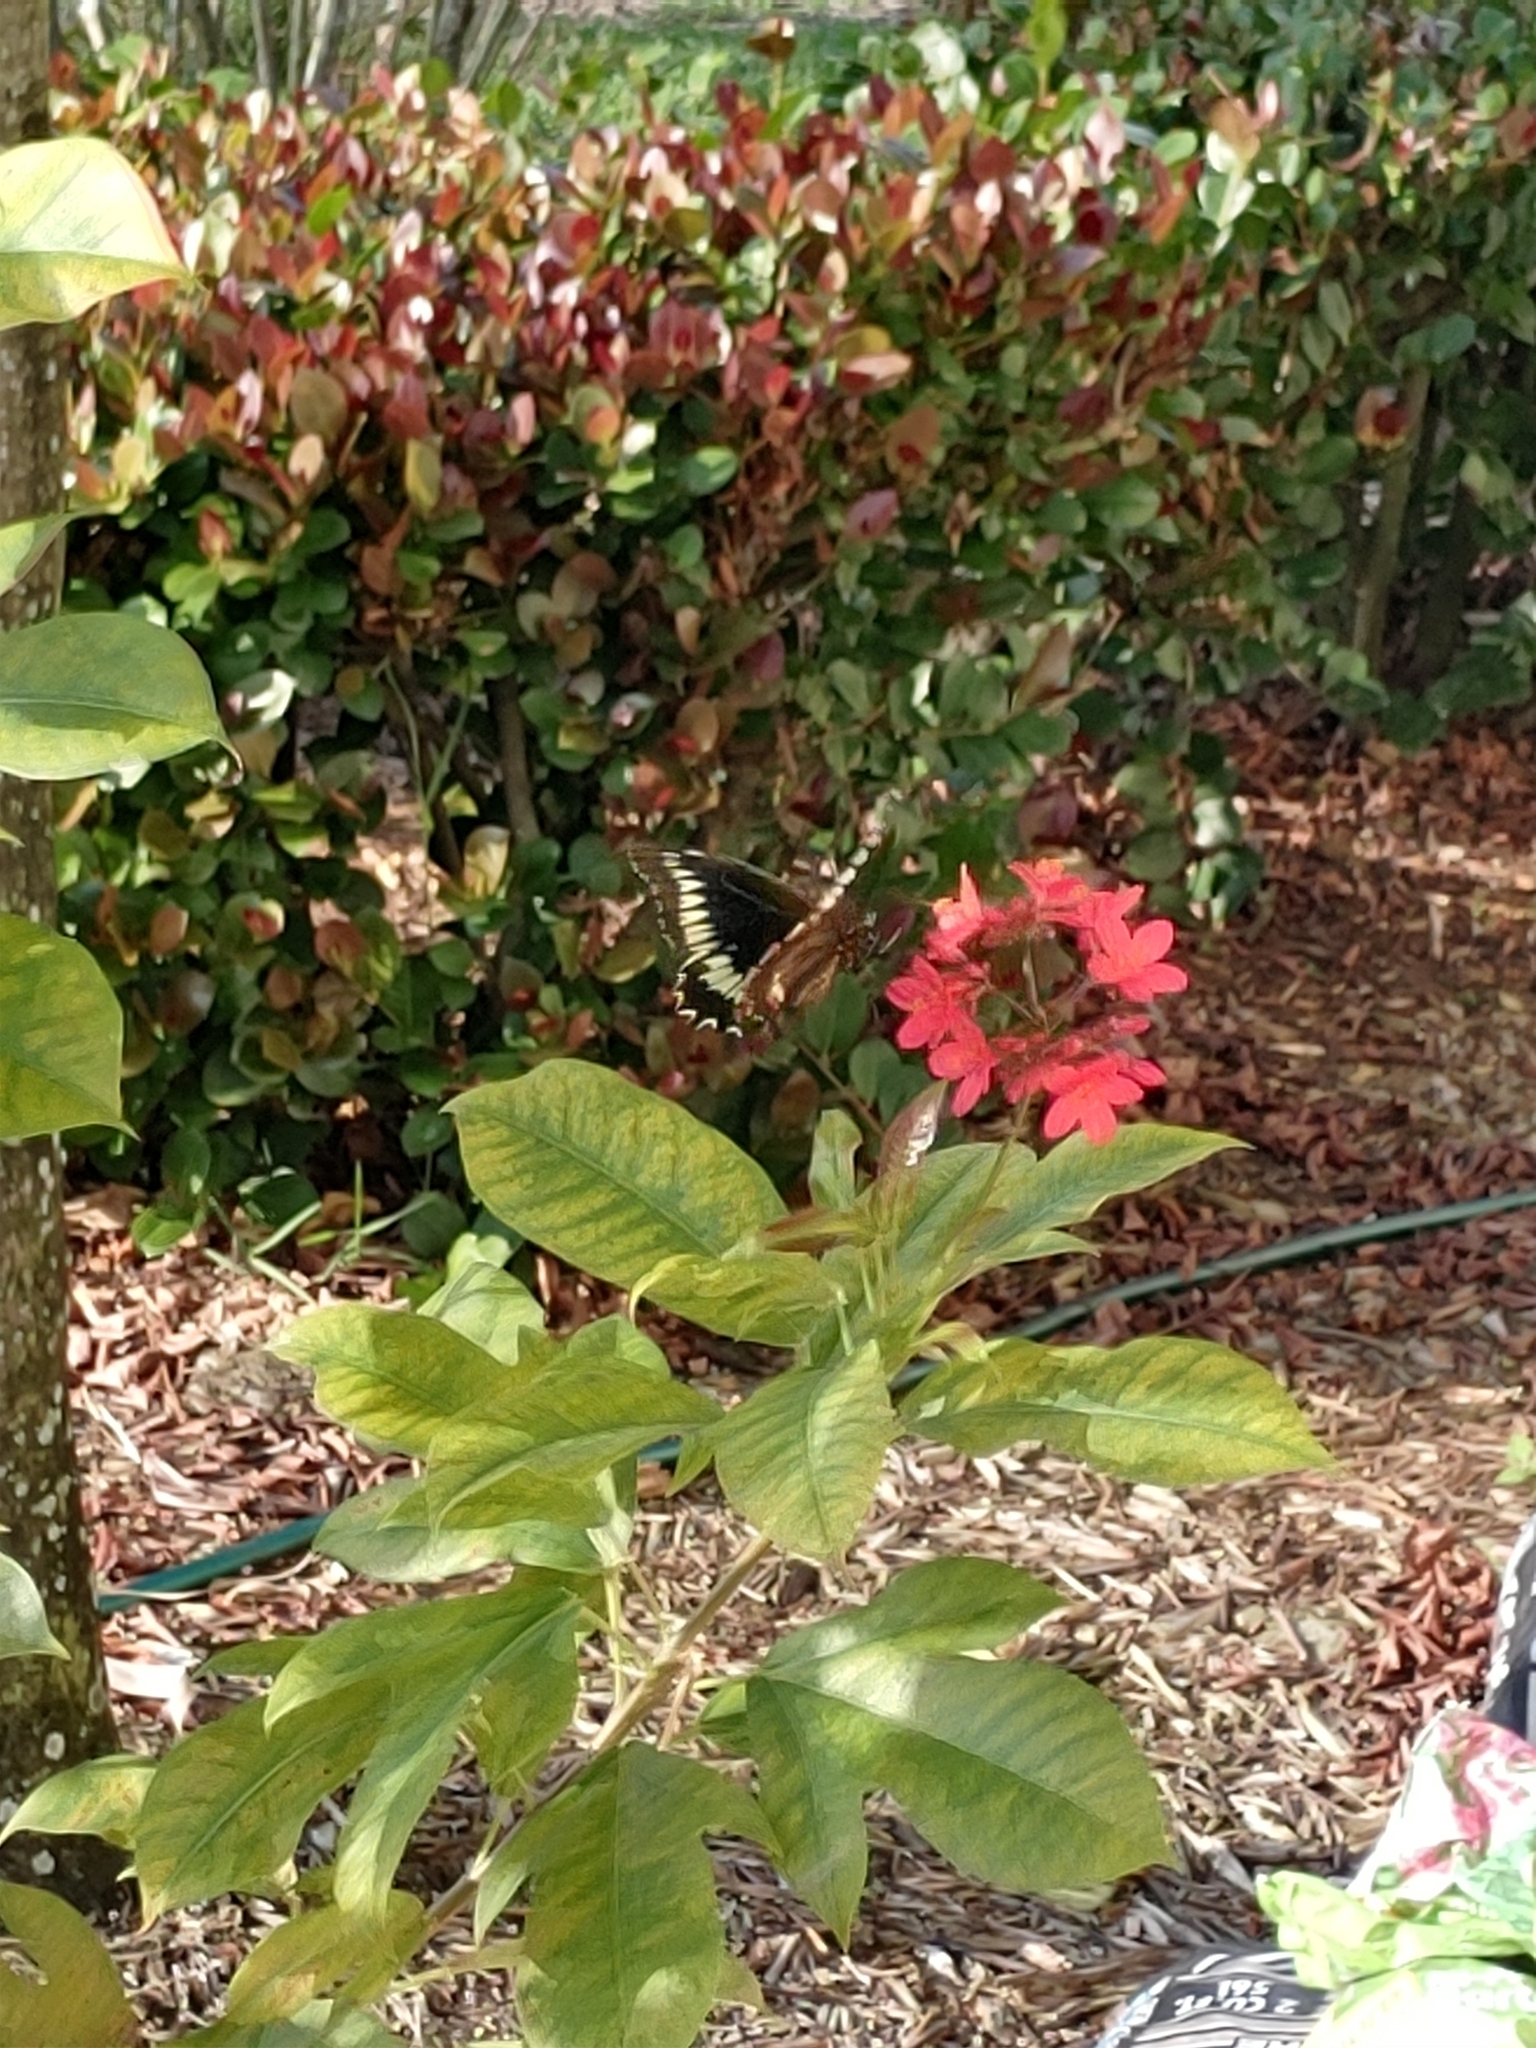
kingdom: Animalia
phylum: Arthropoda
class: Insecta
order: Lepidoptera
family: Papilionidae
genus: Battus
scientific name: Battus polydamas
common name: Polydamas swallowtail
